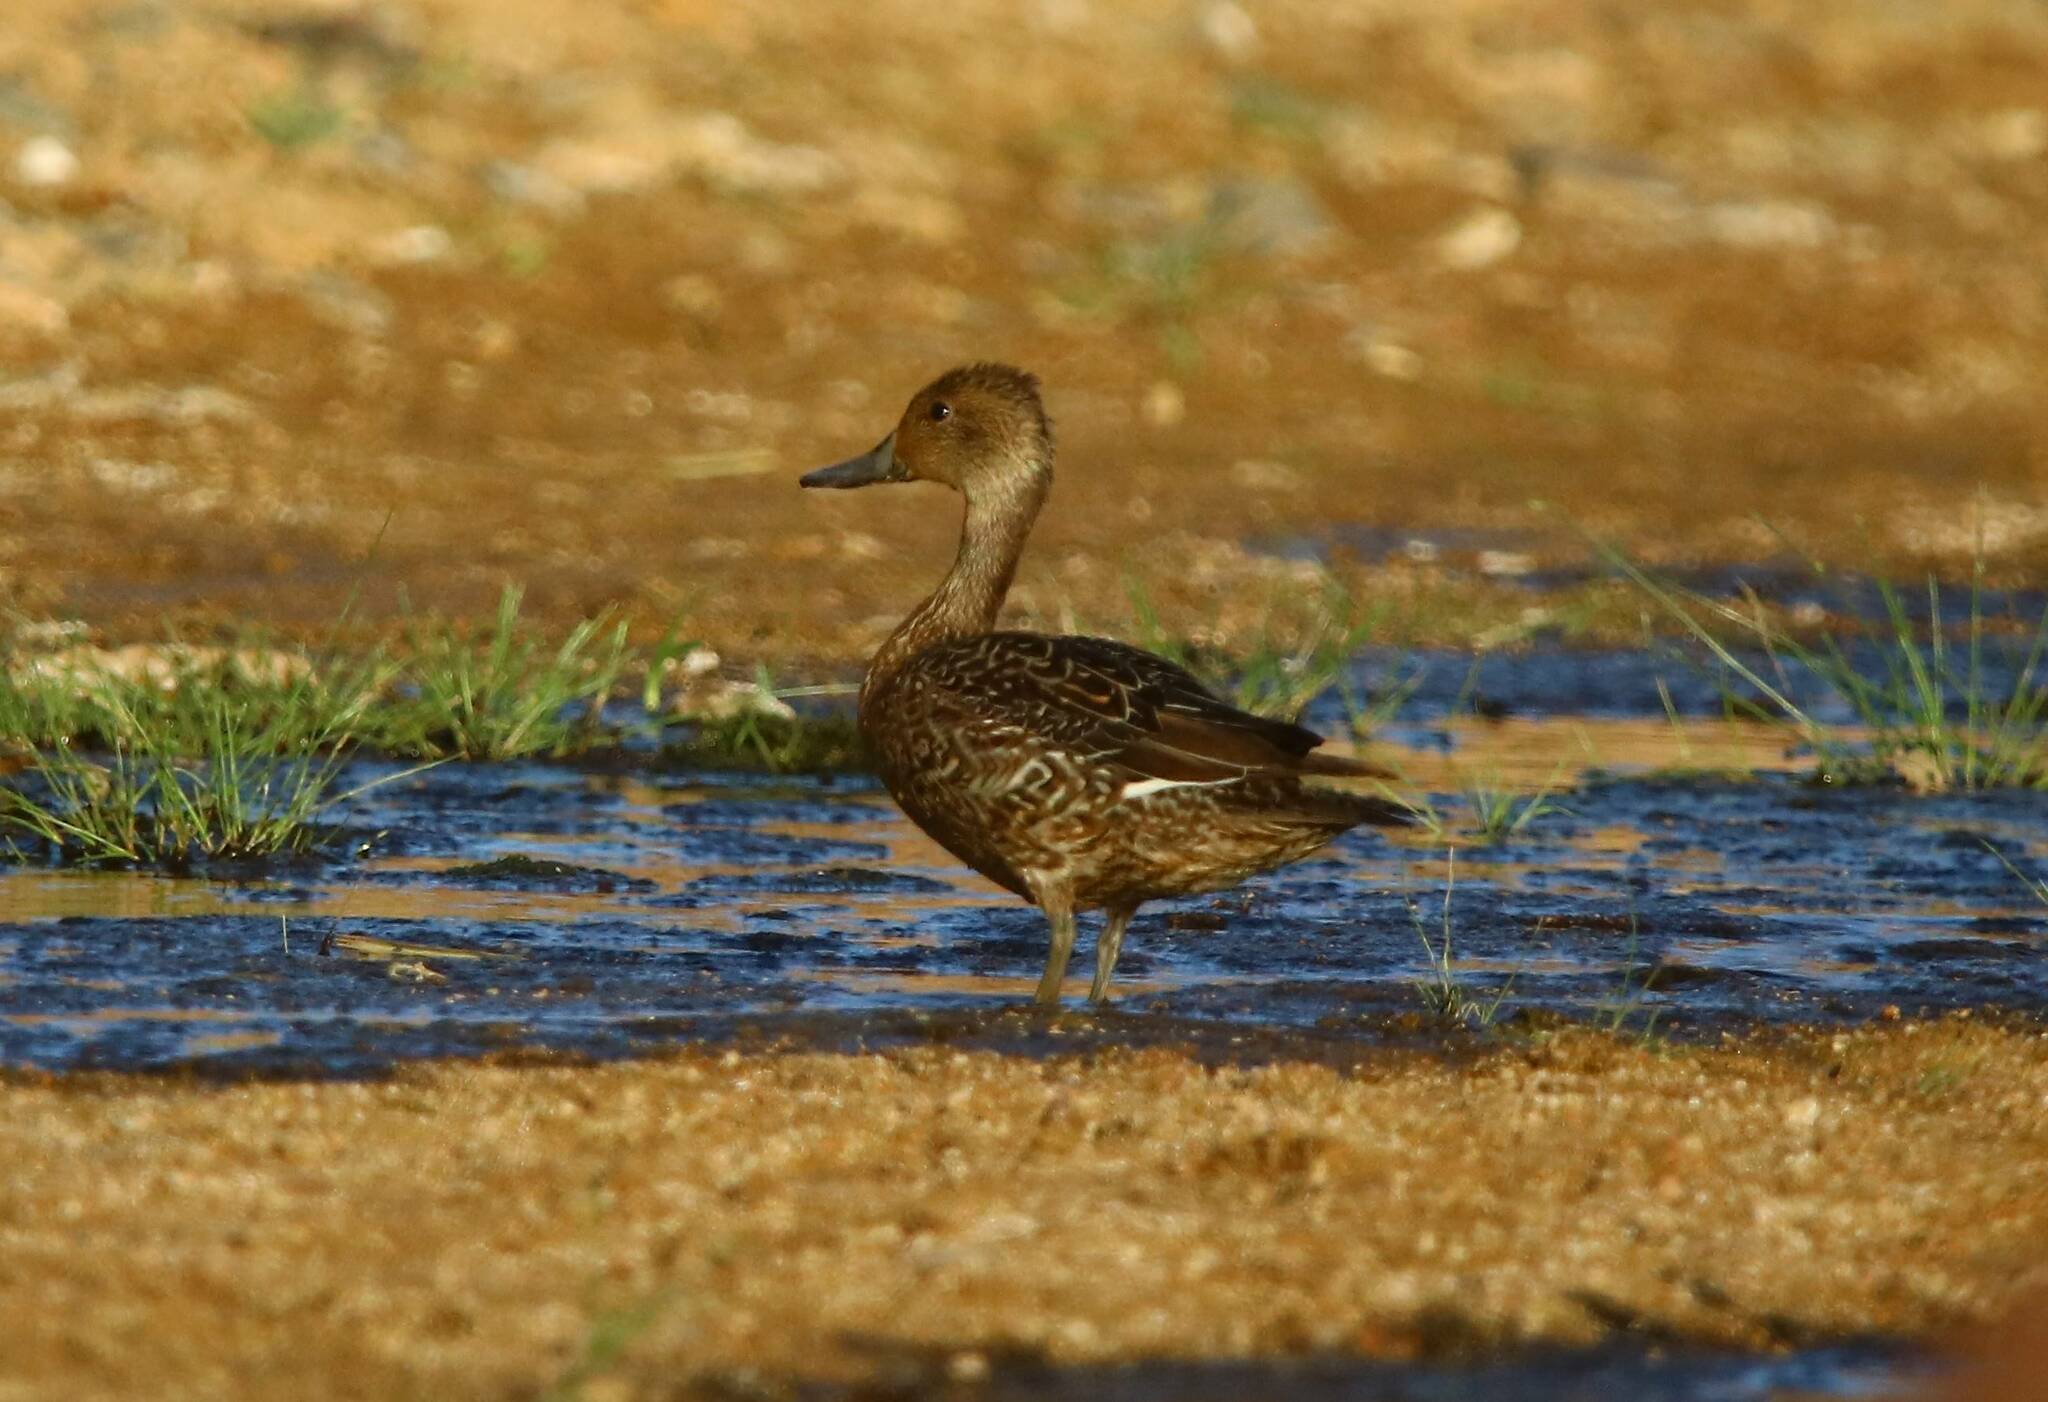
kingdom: Animalia
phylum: Chordata
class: Aves
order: Anseriformes
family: Anatidae
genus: Anas
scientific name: Anas acuta
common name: Northern pintail
